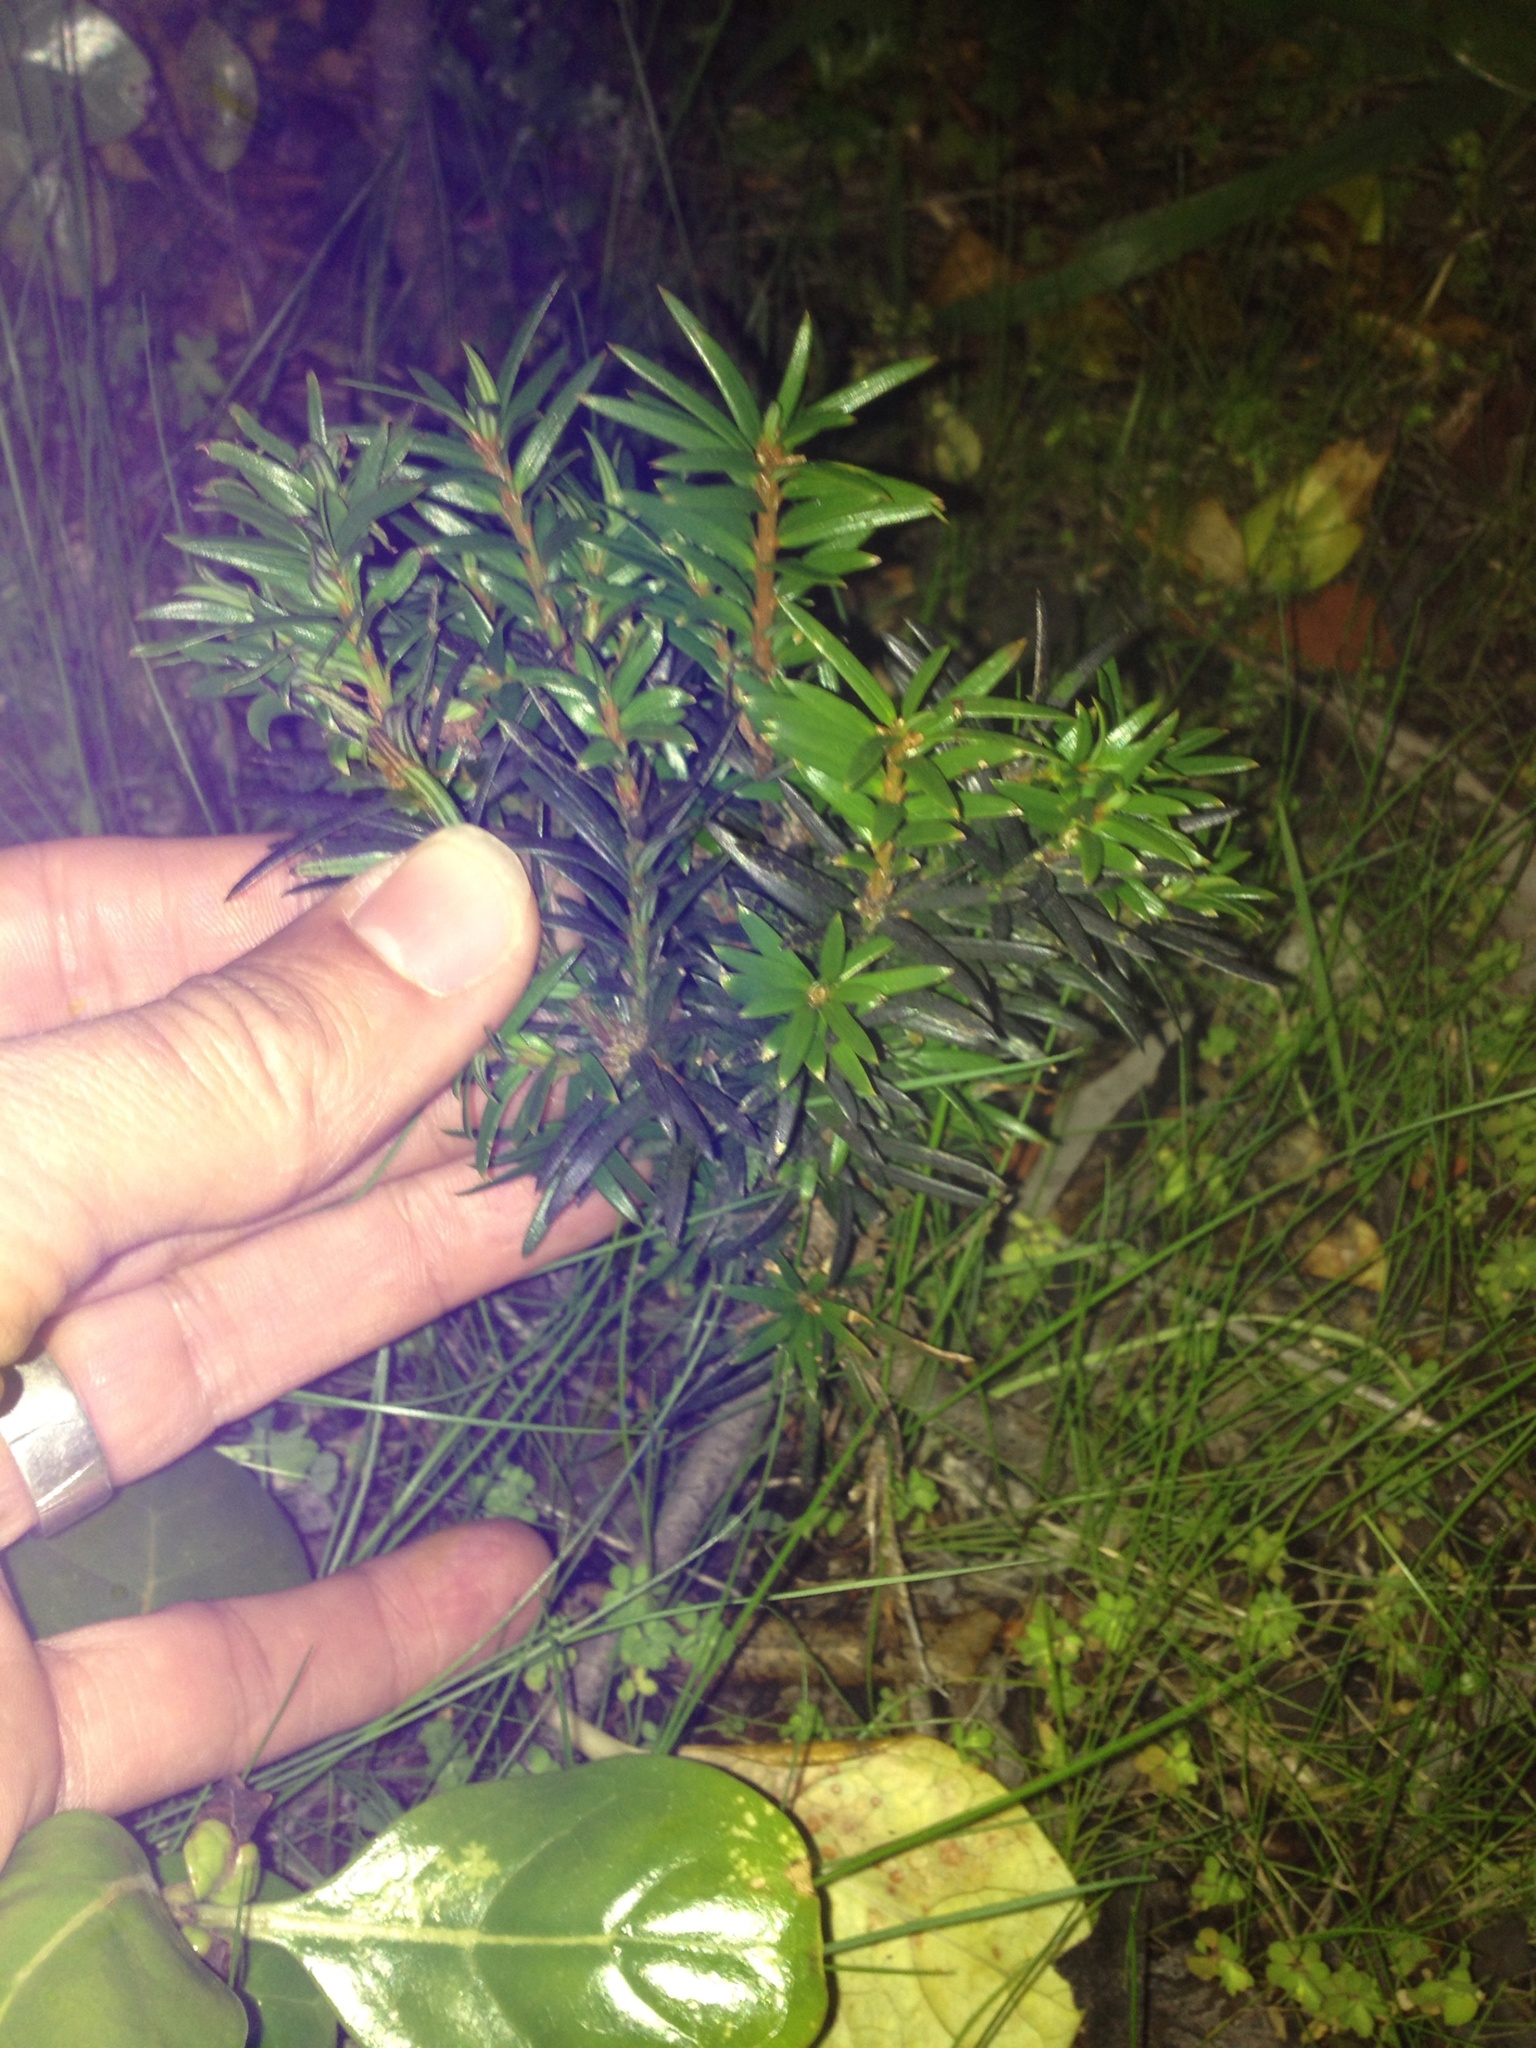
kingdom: Plantae
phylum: Tracheophyta
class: Pinopsida
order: Pinales
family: Taxaceae
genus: Taxus
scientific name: Taxus baccata
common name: Yew
